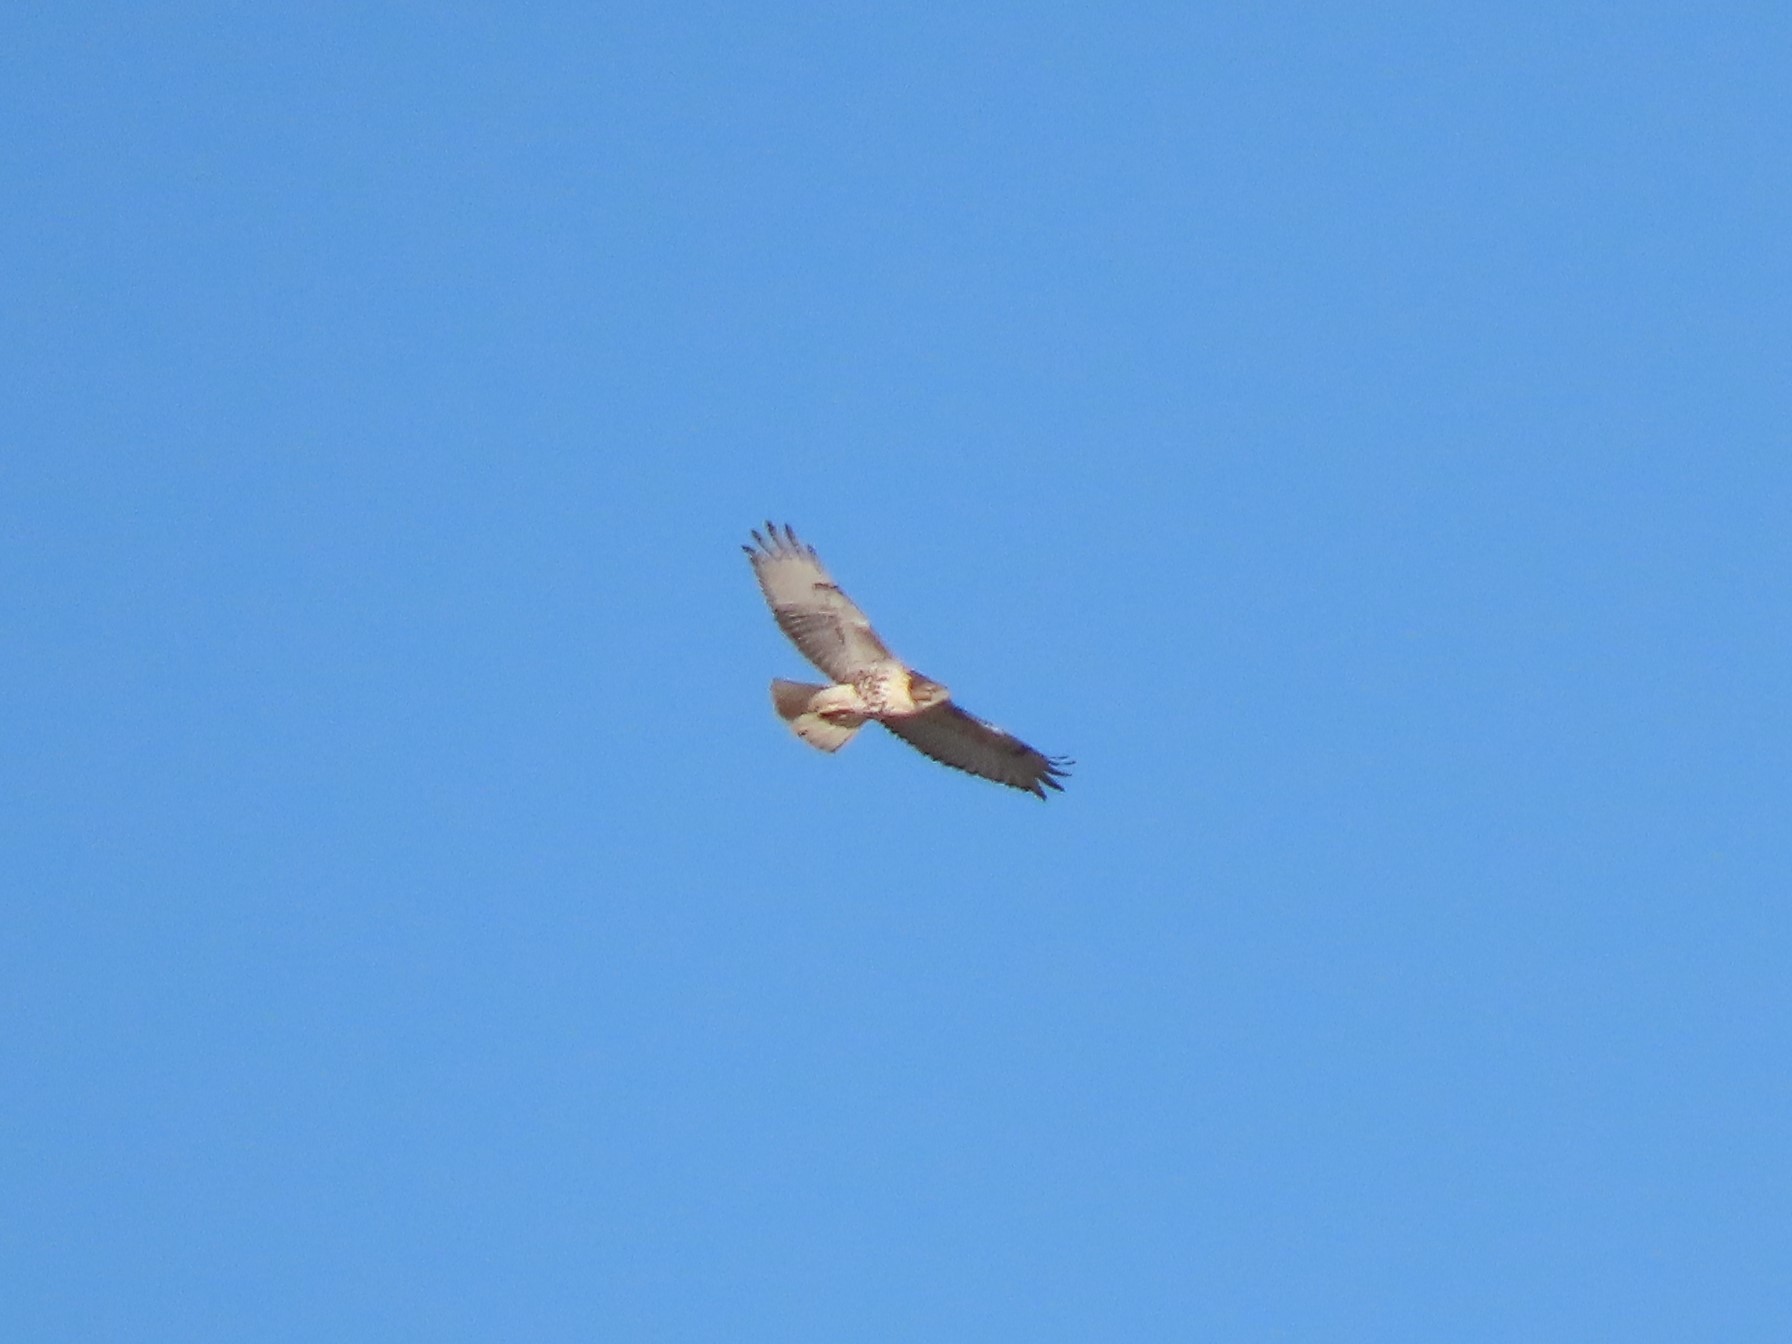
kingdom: Animalia
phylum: Chordata
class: Aves
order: Accipitriformes
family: Accipitridae
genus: Buteo
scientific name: Buteo jamaicensis
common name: Red-tailed hawk
